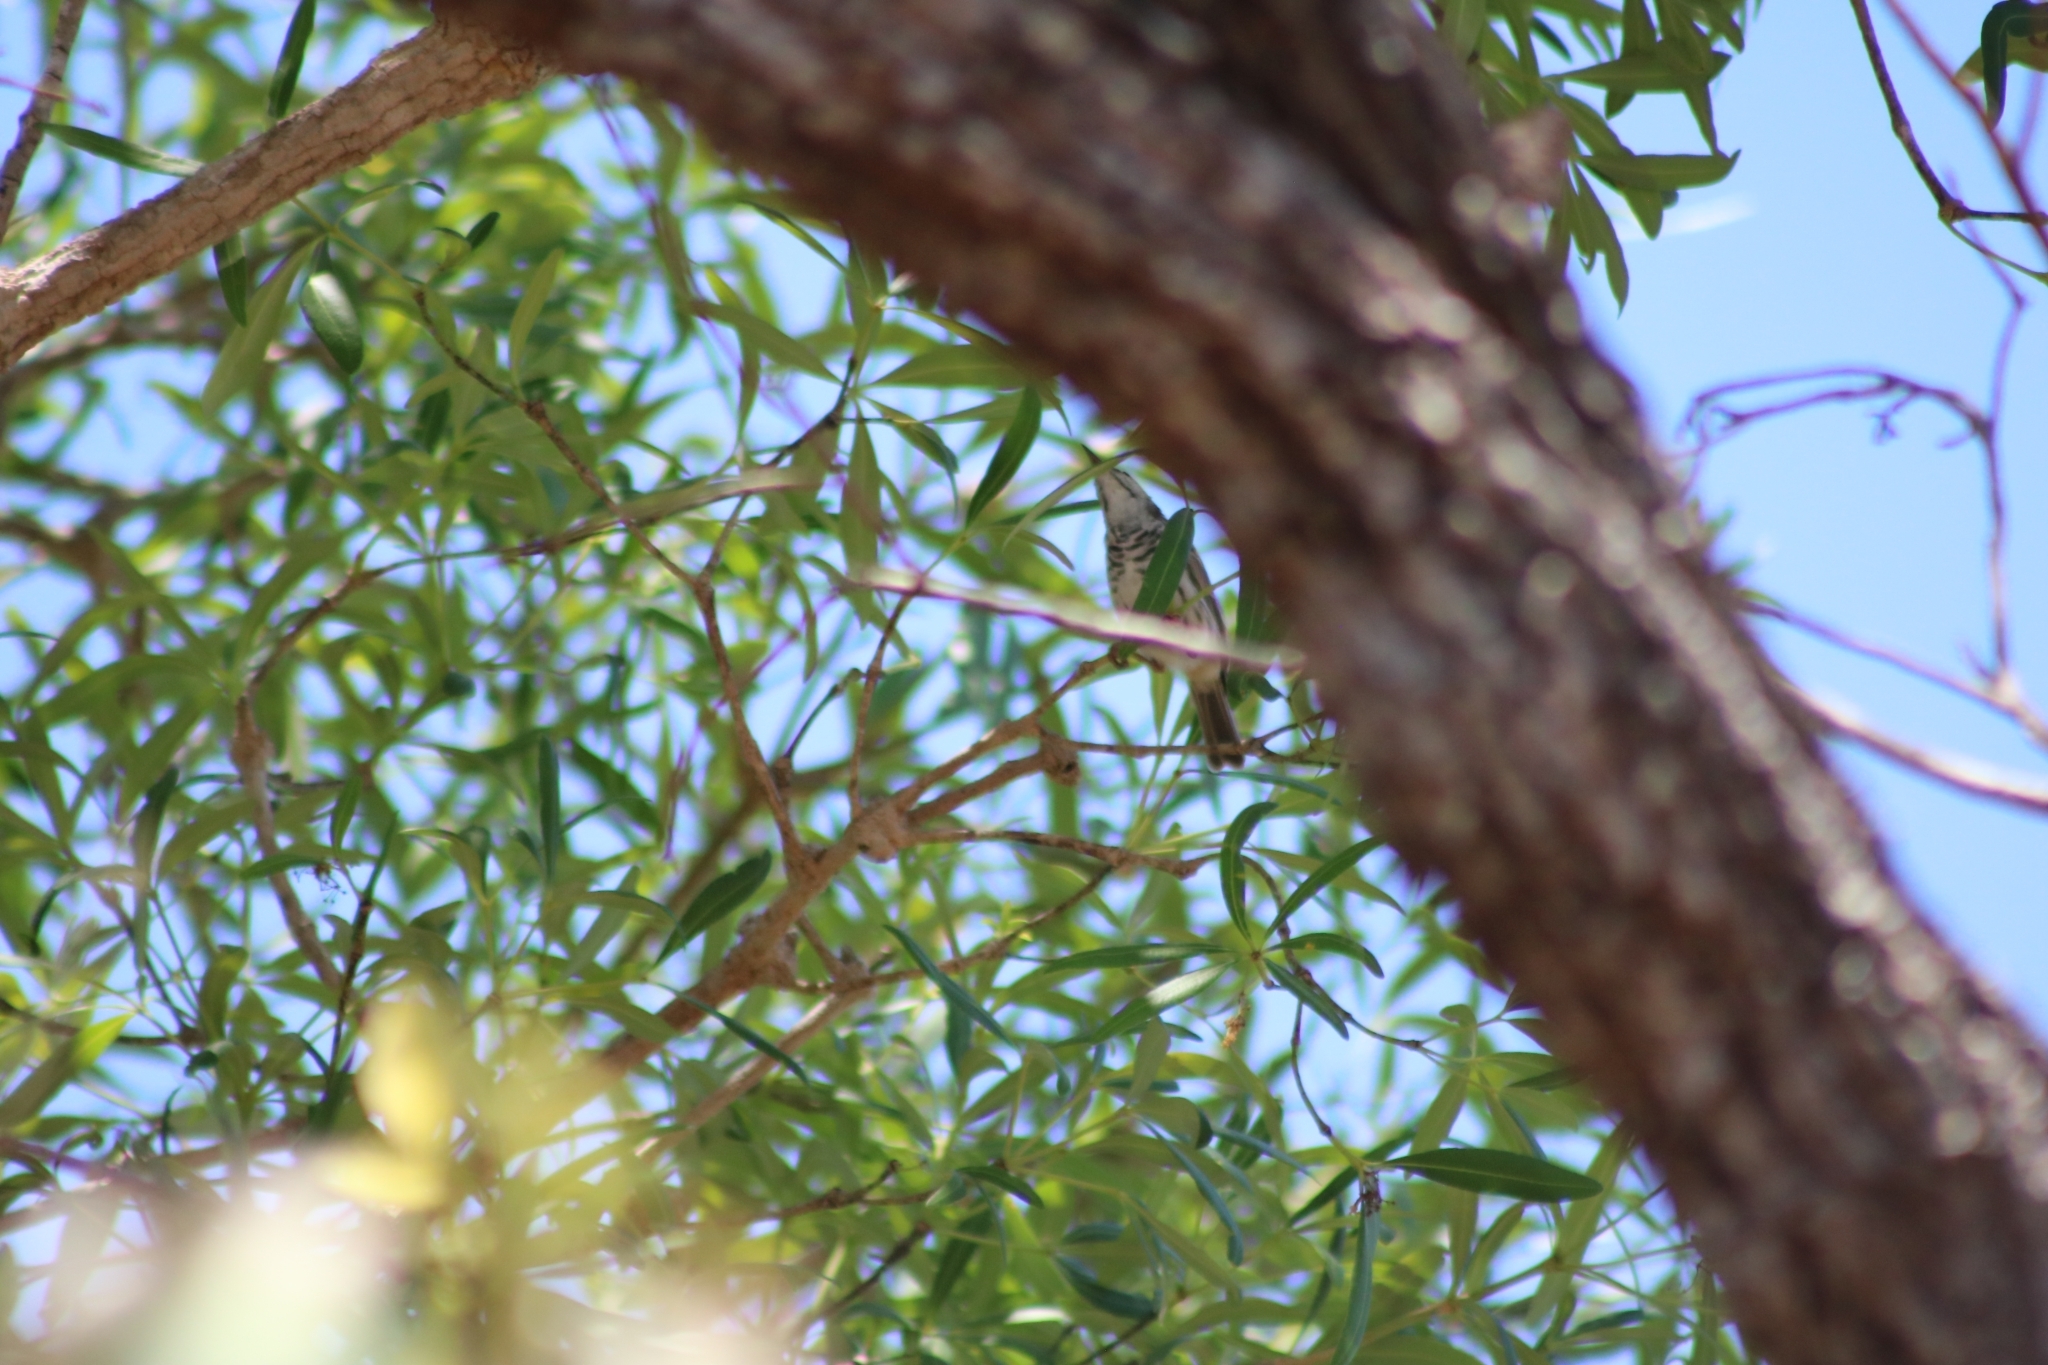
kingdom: Animalia
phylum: Chordata
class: Aves
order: Passeriformes
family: Meliphagidae
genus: Ramsayornis
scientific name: Ramsayornis fasciatus
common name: Bar-breasted honeyeater
